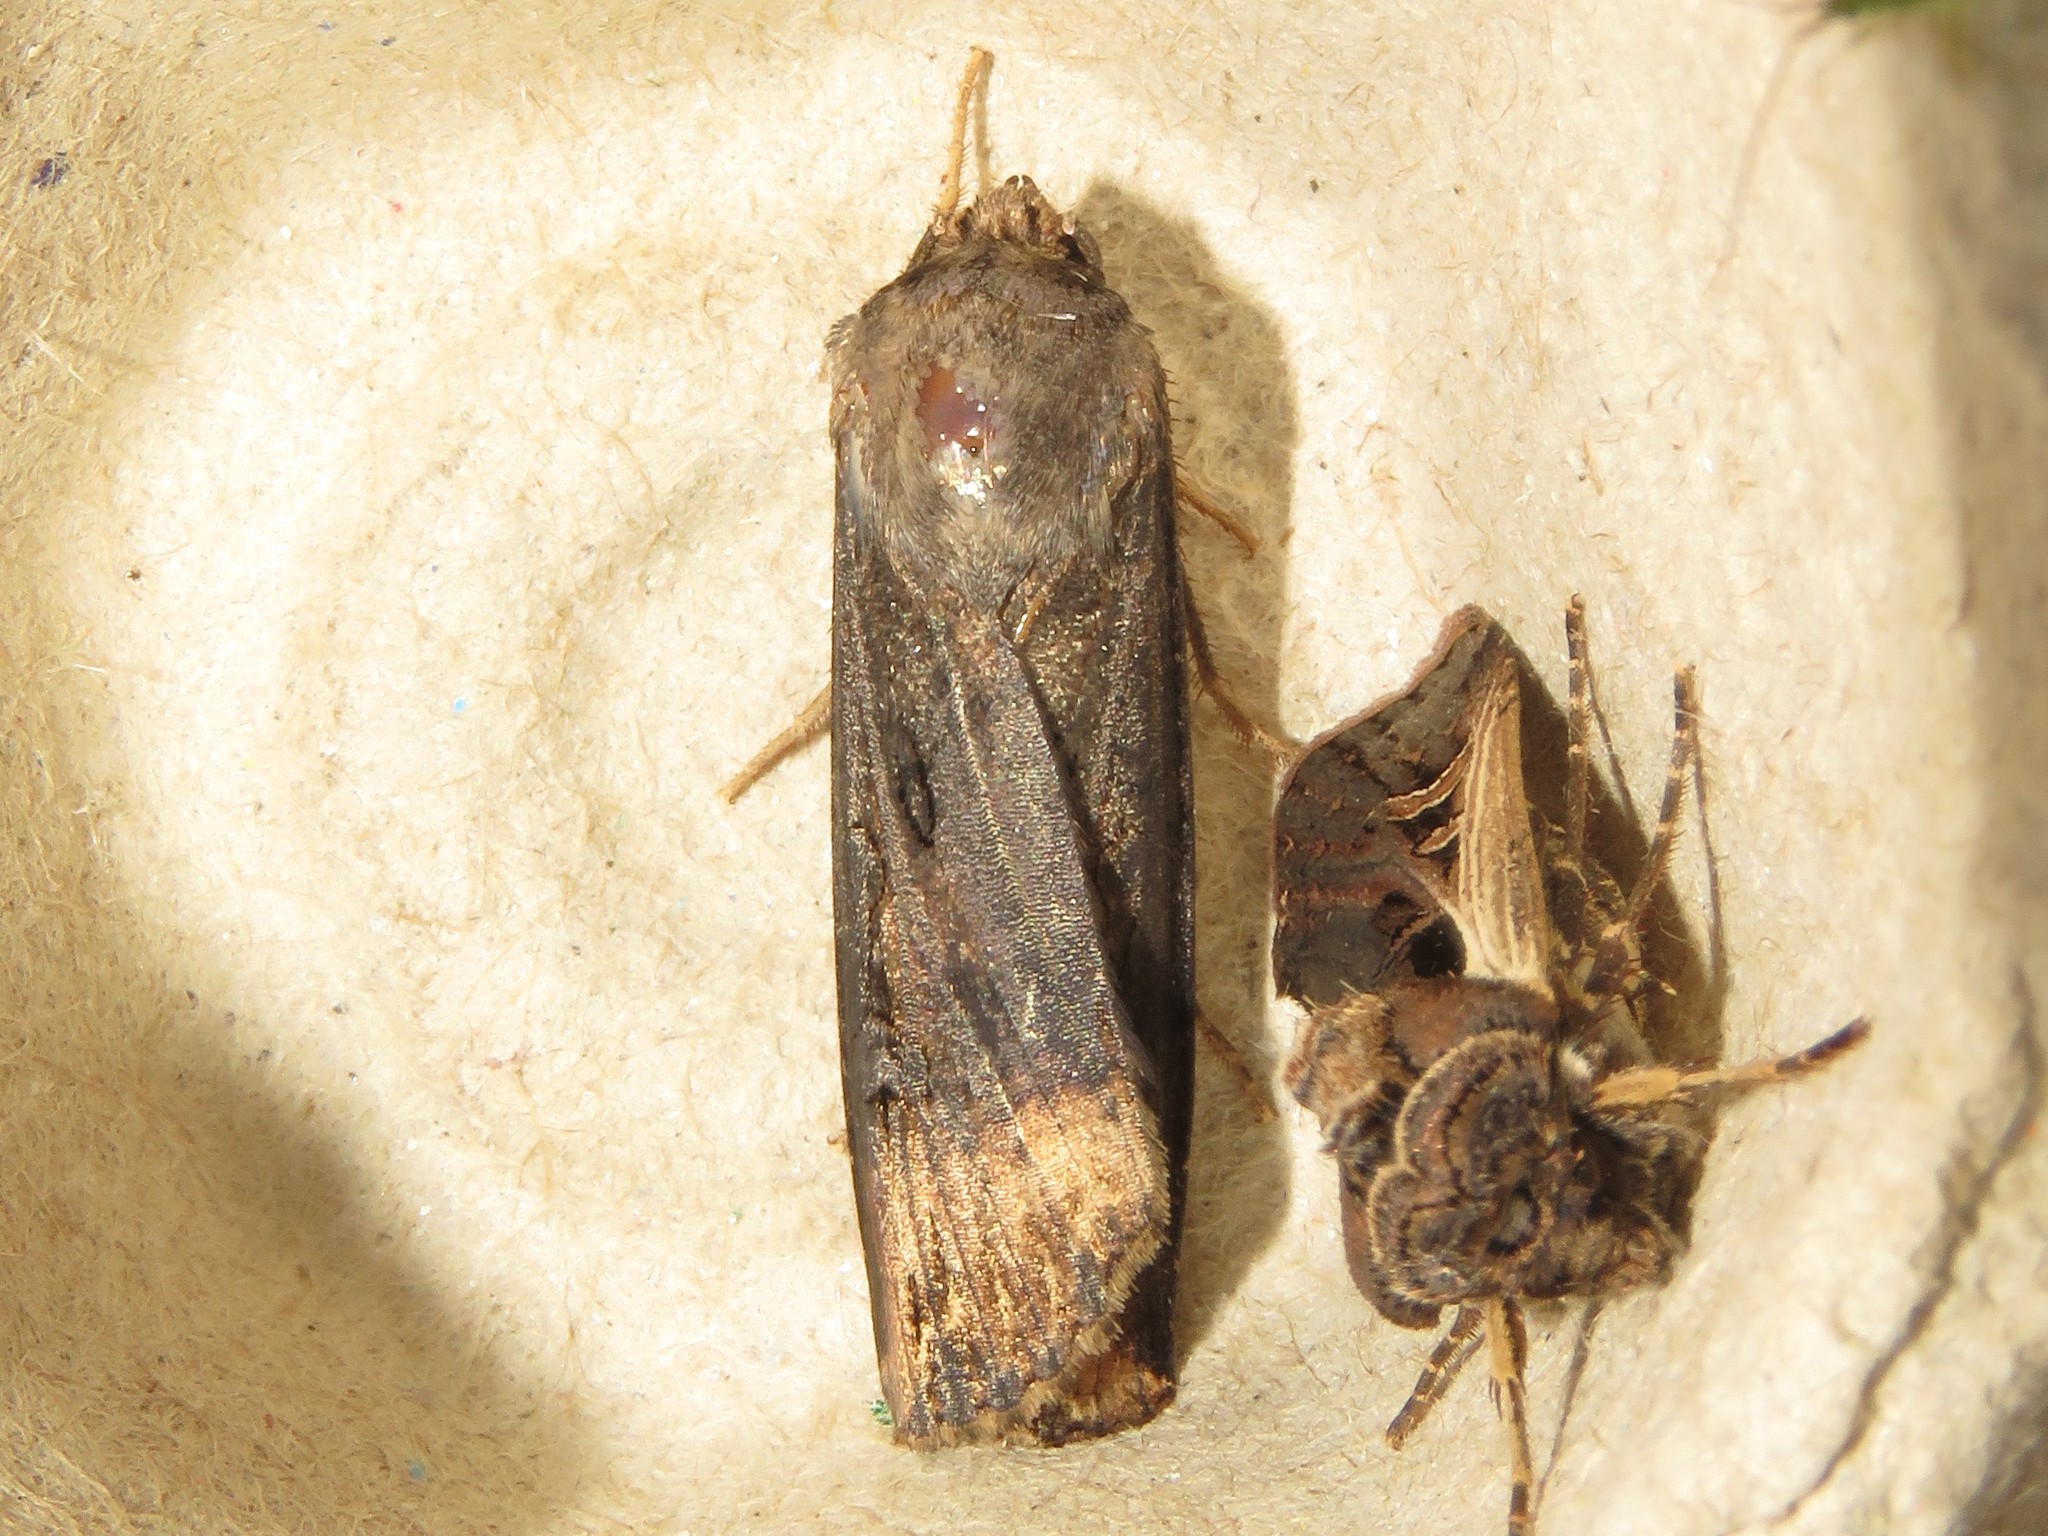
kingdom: Animalia
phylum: Arthropoda
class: Insecta
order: Lepidoptera
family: Noctuidae
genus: Agrotis
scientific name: Agrotis ipsilon
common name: Dark sword-grass
